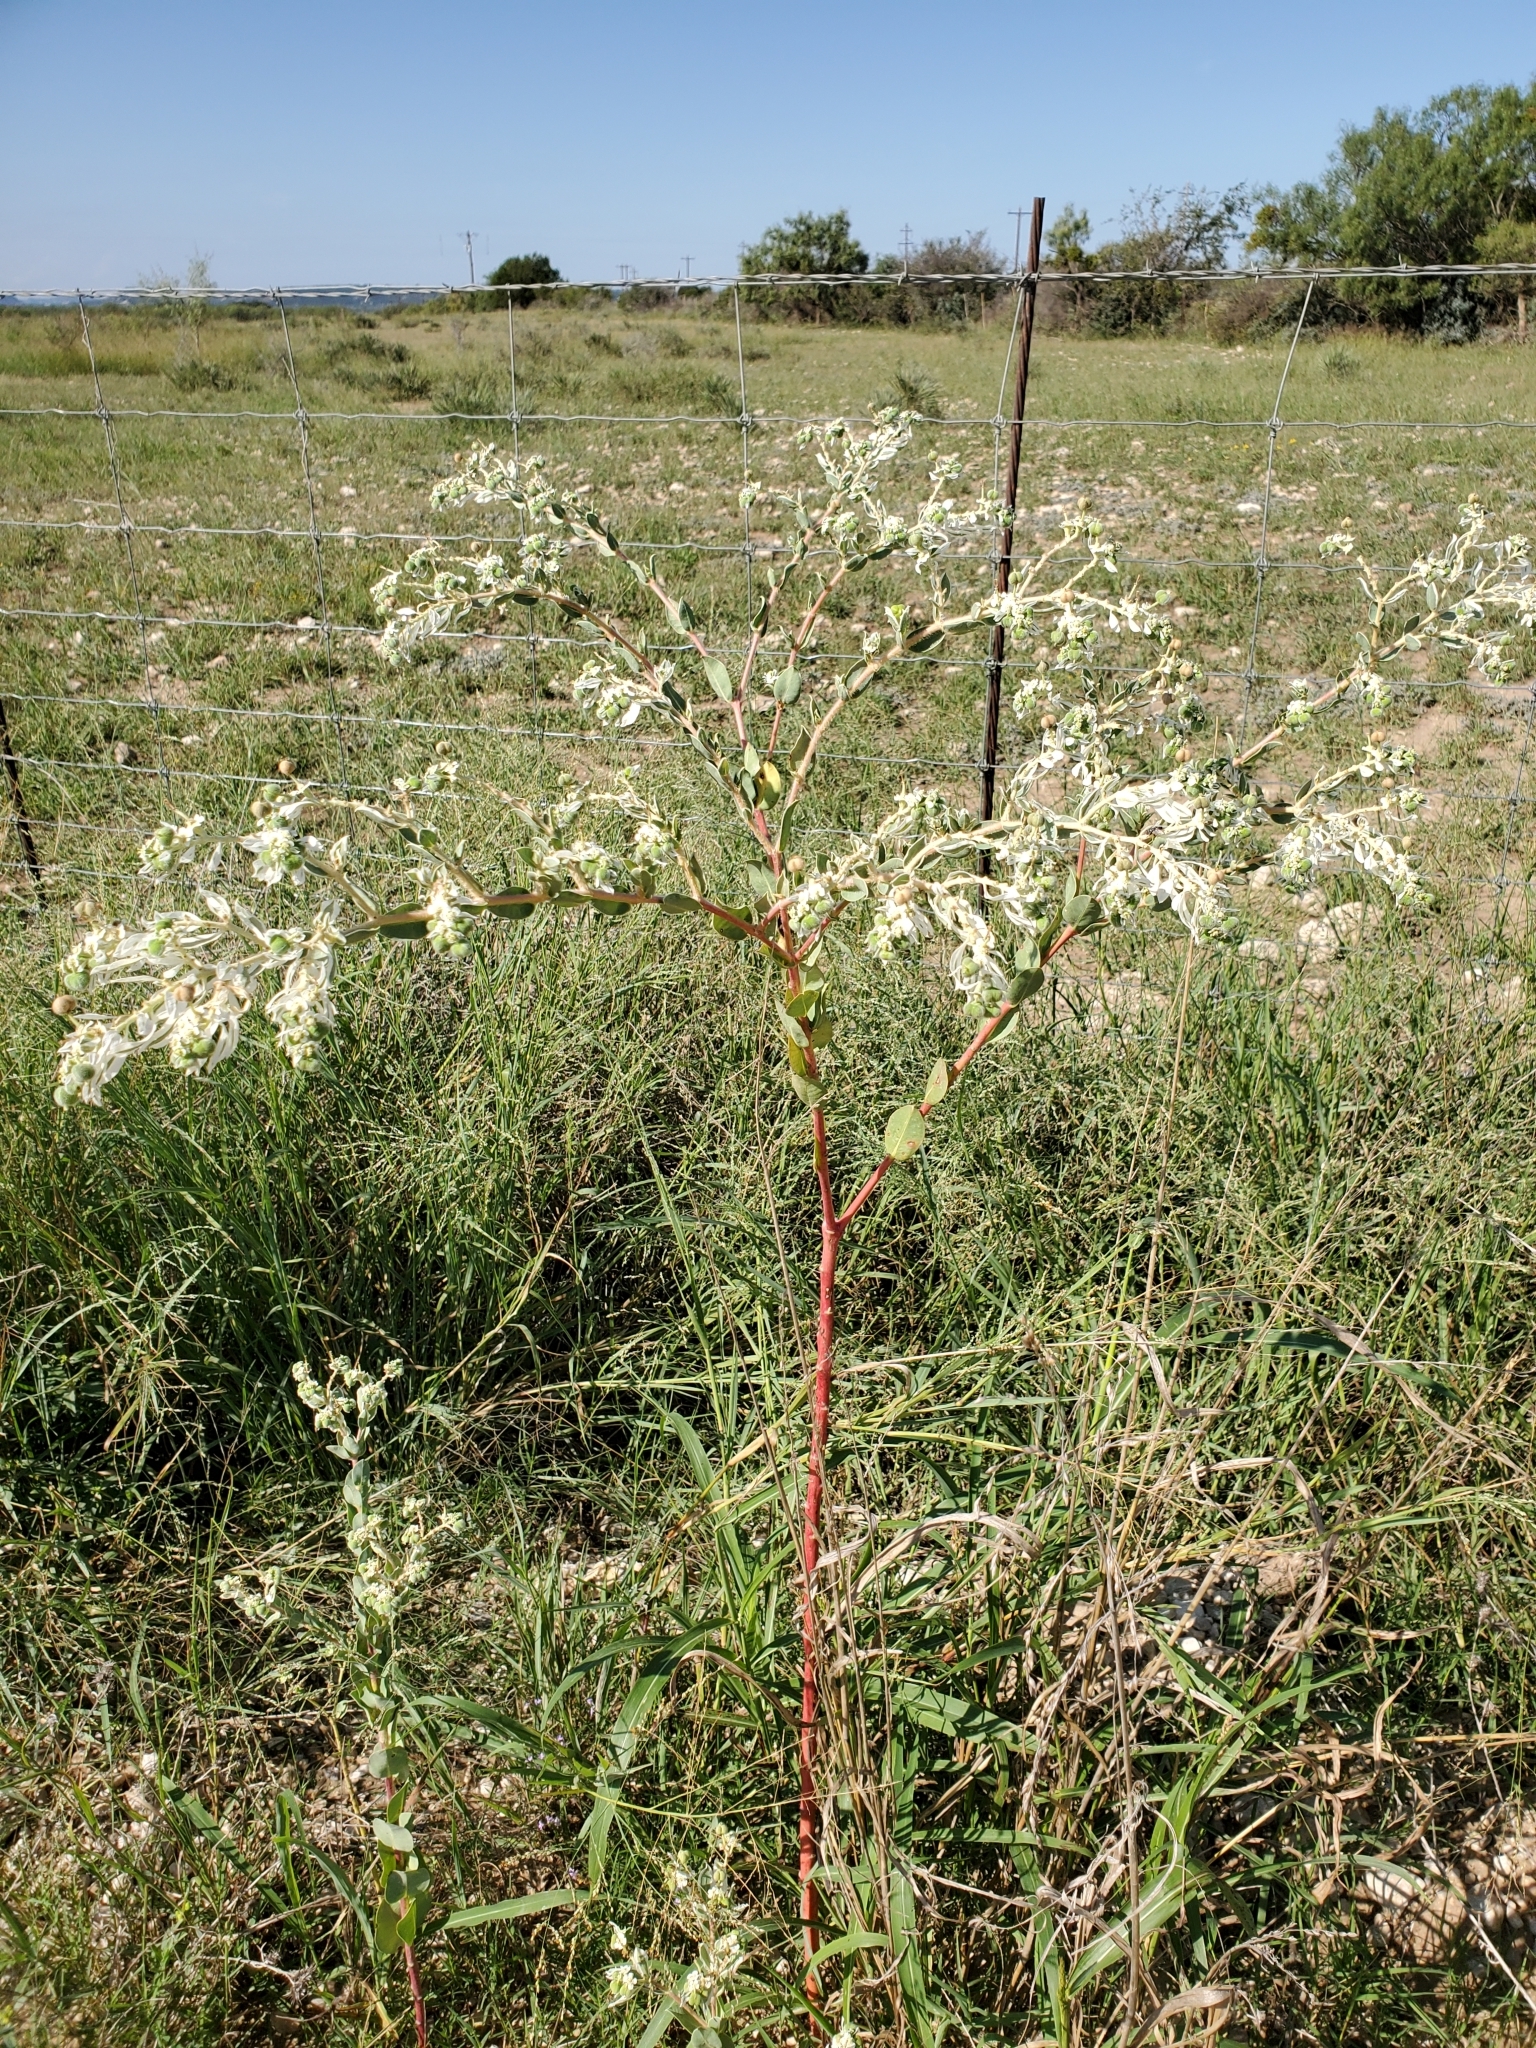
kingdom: Plantae
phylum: Tracheophyta
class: Magnoliopsida
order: Malpighiales
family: Euphorbiaceae
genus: Euphorbia
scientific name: Euphorbia marginata
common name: Ghostweed
